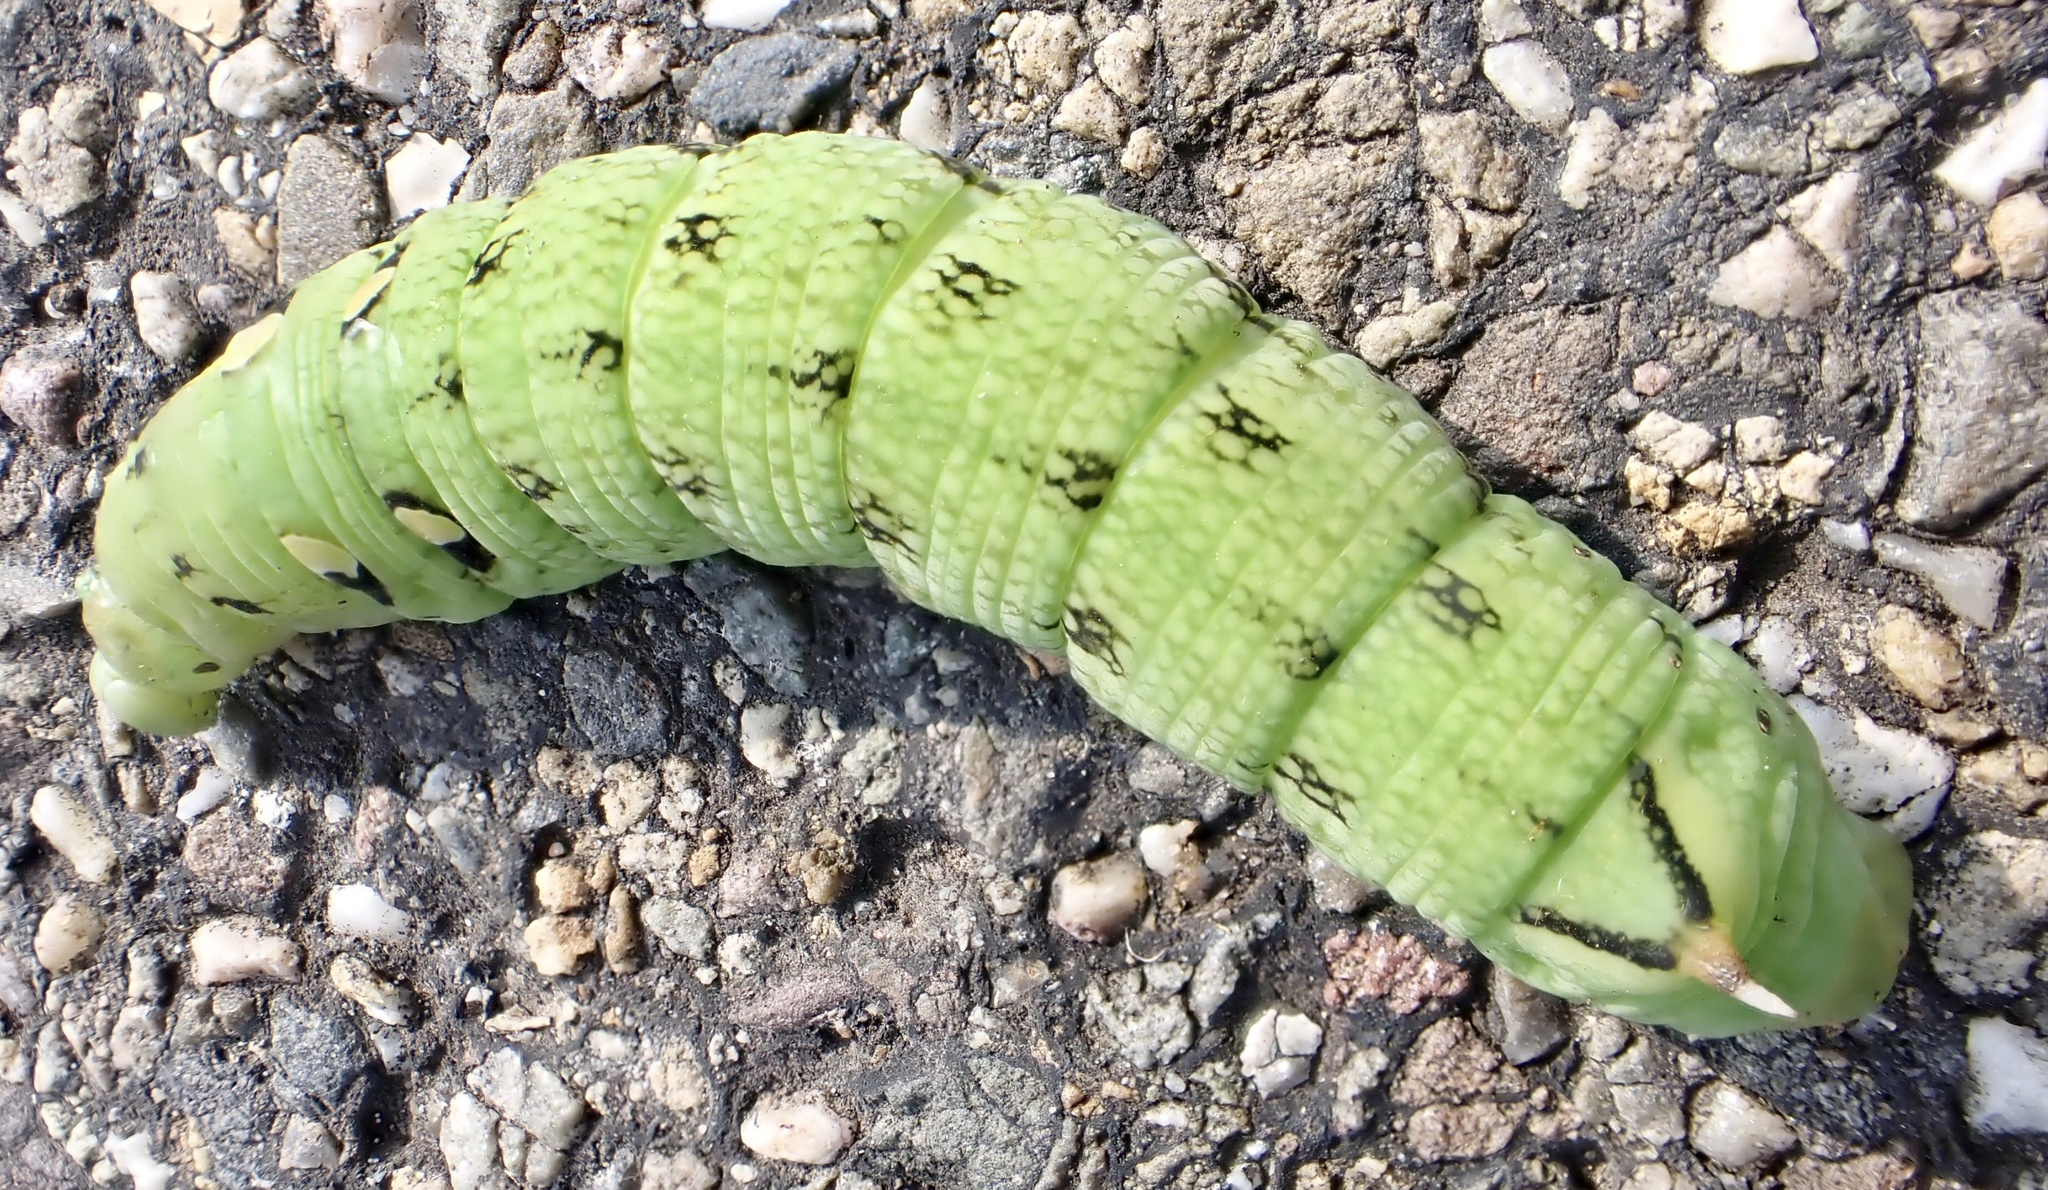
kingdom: Animalia
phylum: Arthropoda
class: Insecta
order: Lepidoptera
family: Sphingidae
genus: Deilephila
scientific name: Deilephila elpenor
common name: Elephant hawk-moth
